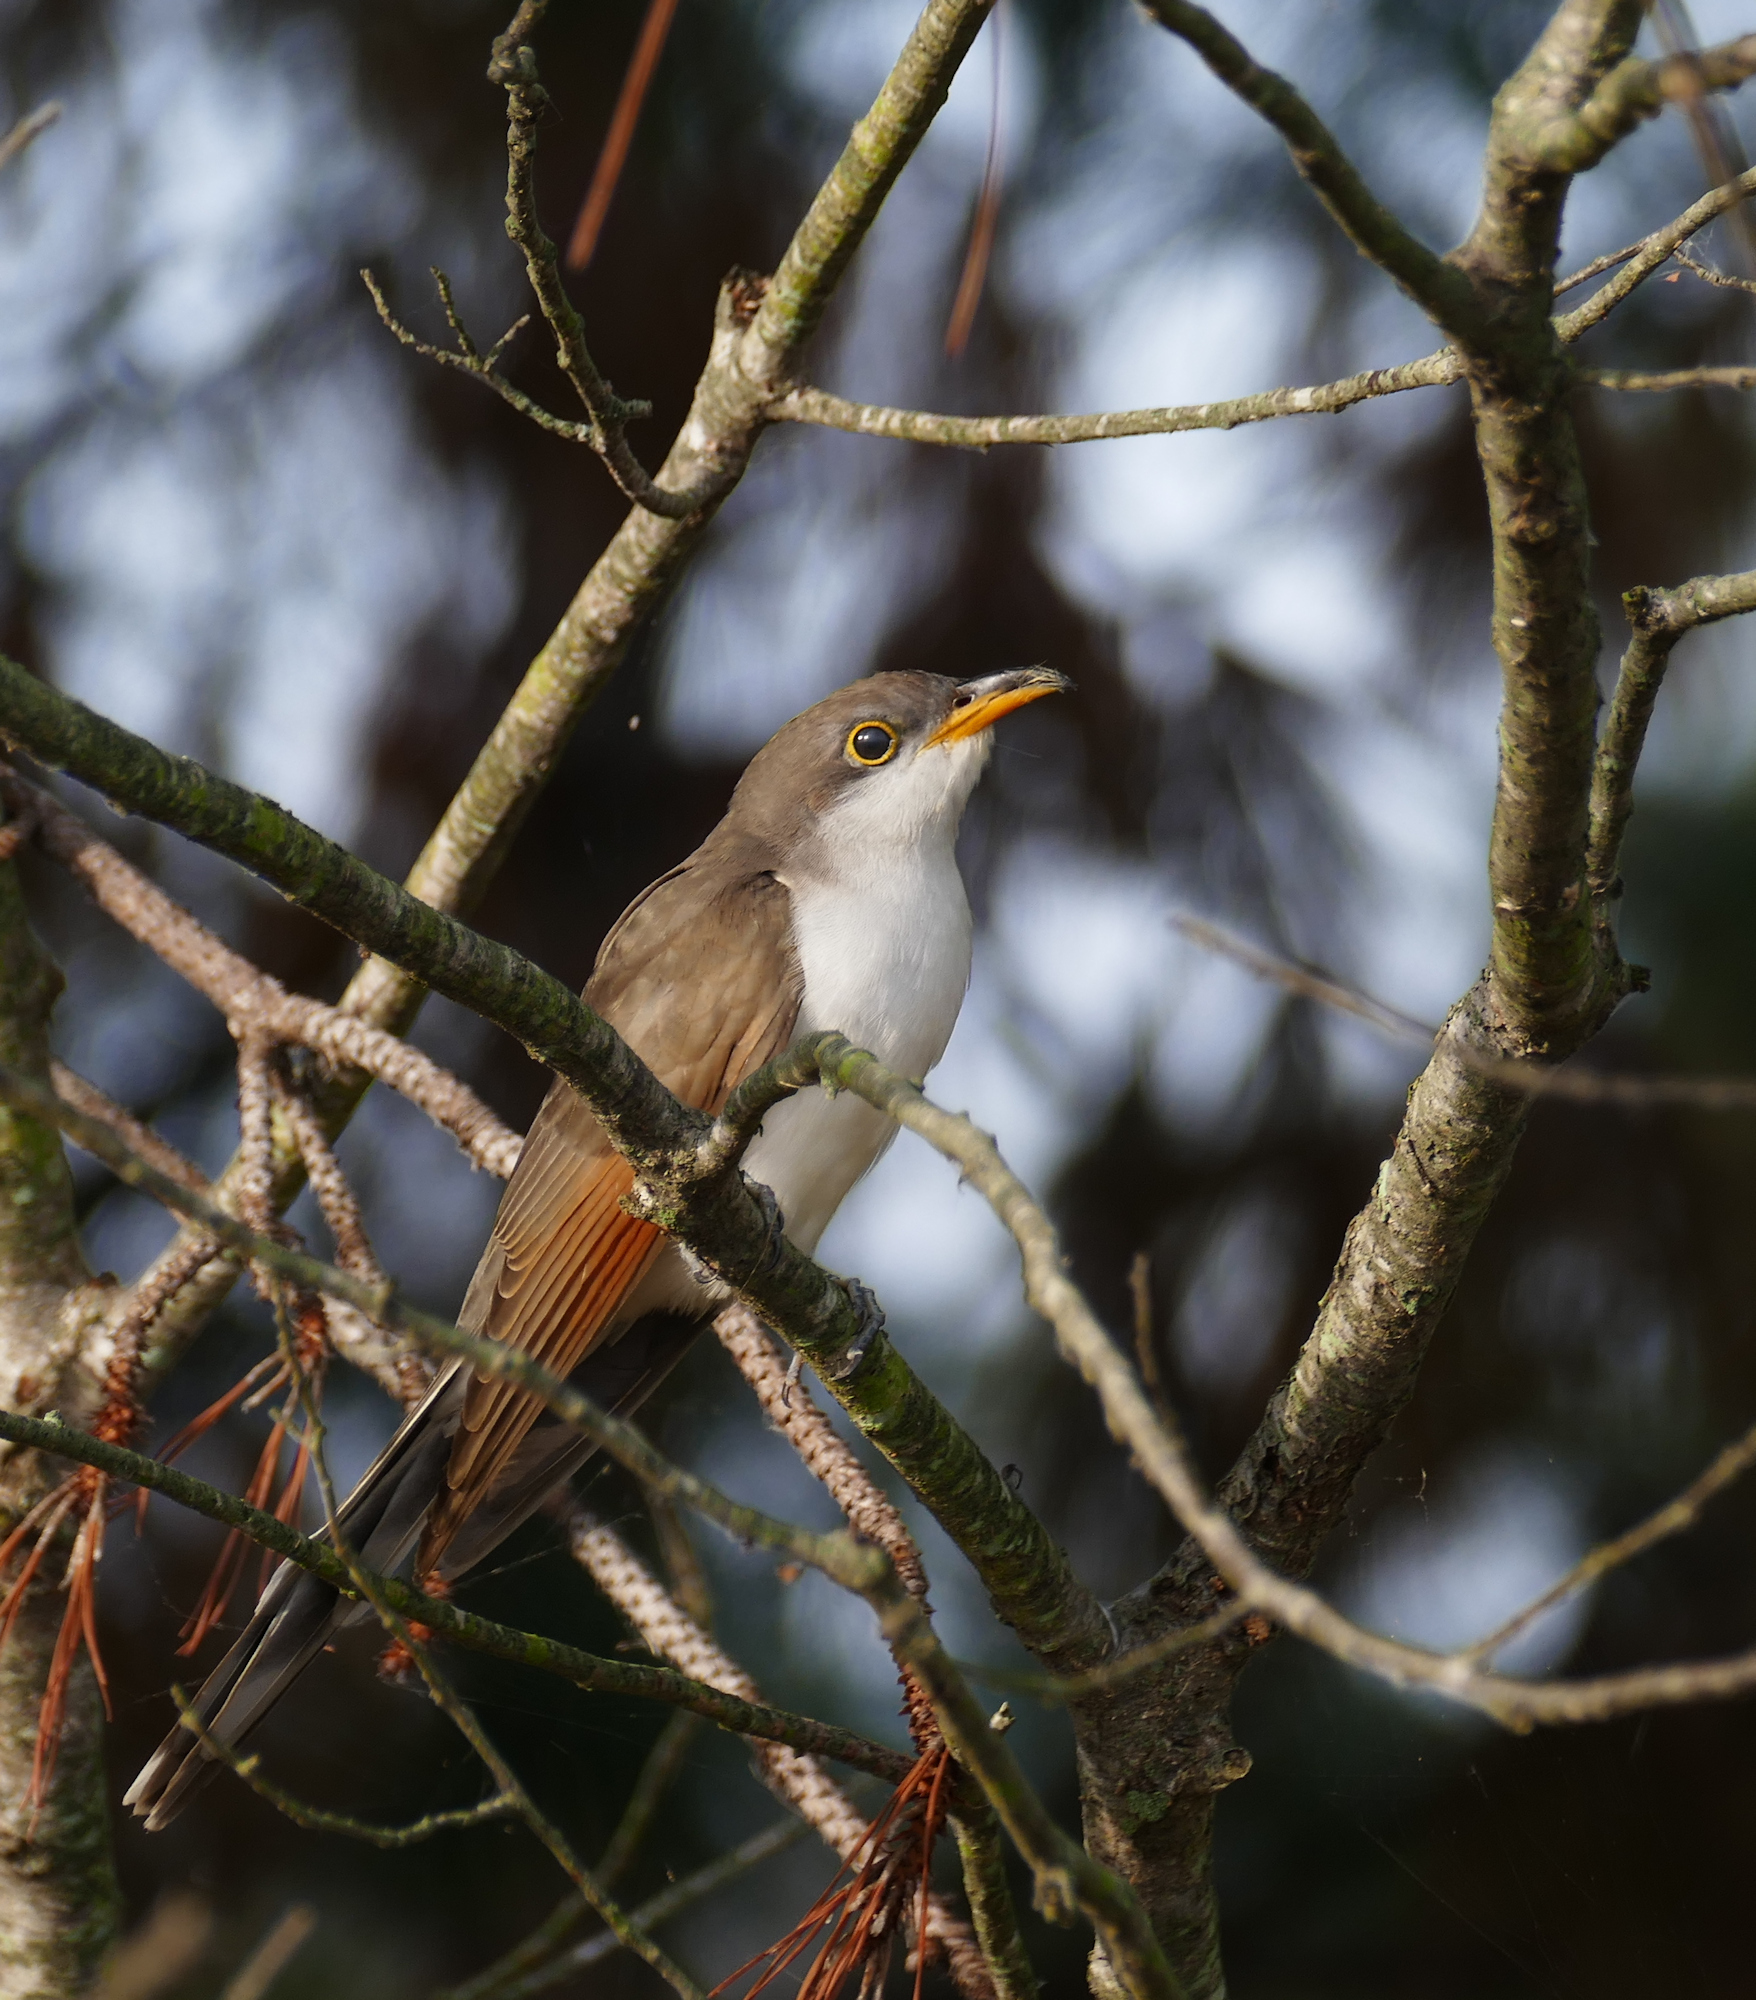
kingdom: Animalia
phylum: Chordata
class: Aves
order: Cuculiformes
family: Cuculidae
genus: Coccyzus
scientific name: Coccyzus americanus
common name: Yellow-billed cuckoo
